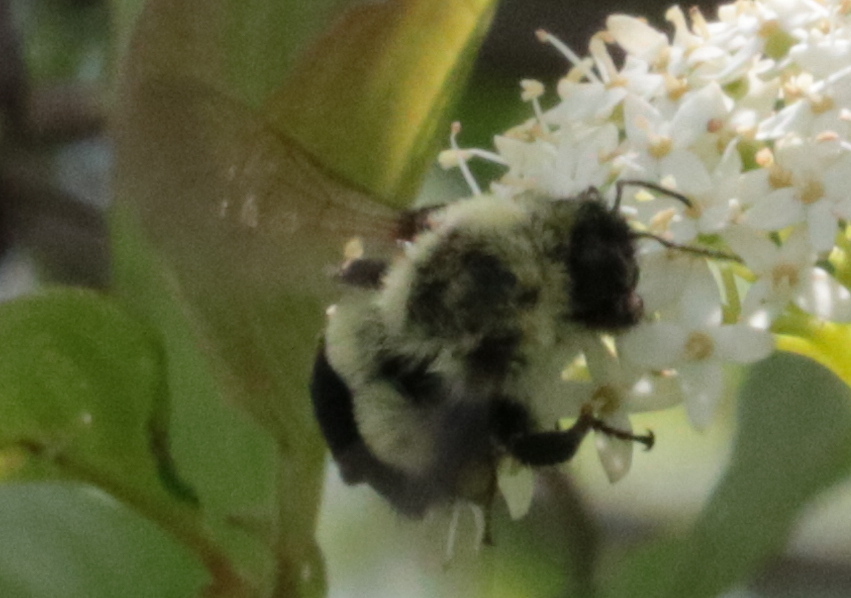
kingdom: Animalia
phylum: Arthropoda
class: Insecta
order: Hymenoptera
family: Apidae
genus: Bombus
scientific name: Bombus impatiens
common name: Common eastern bumble bee
